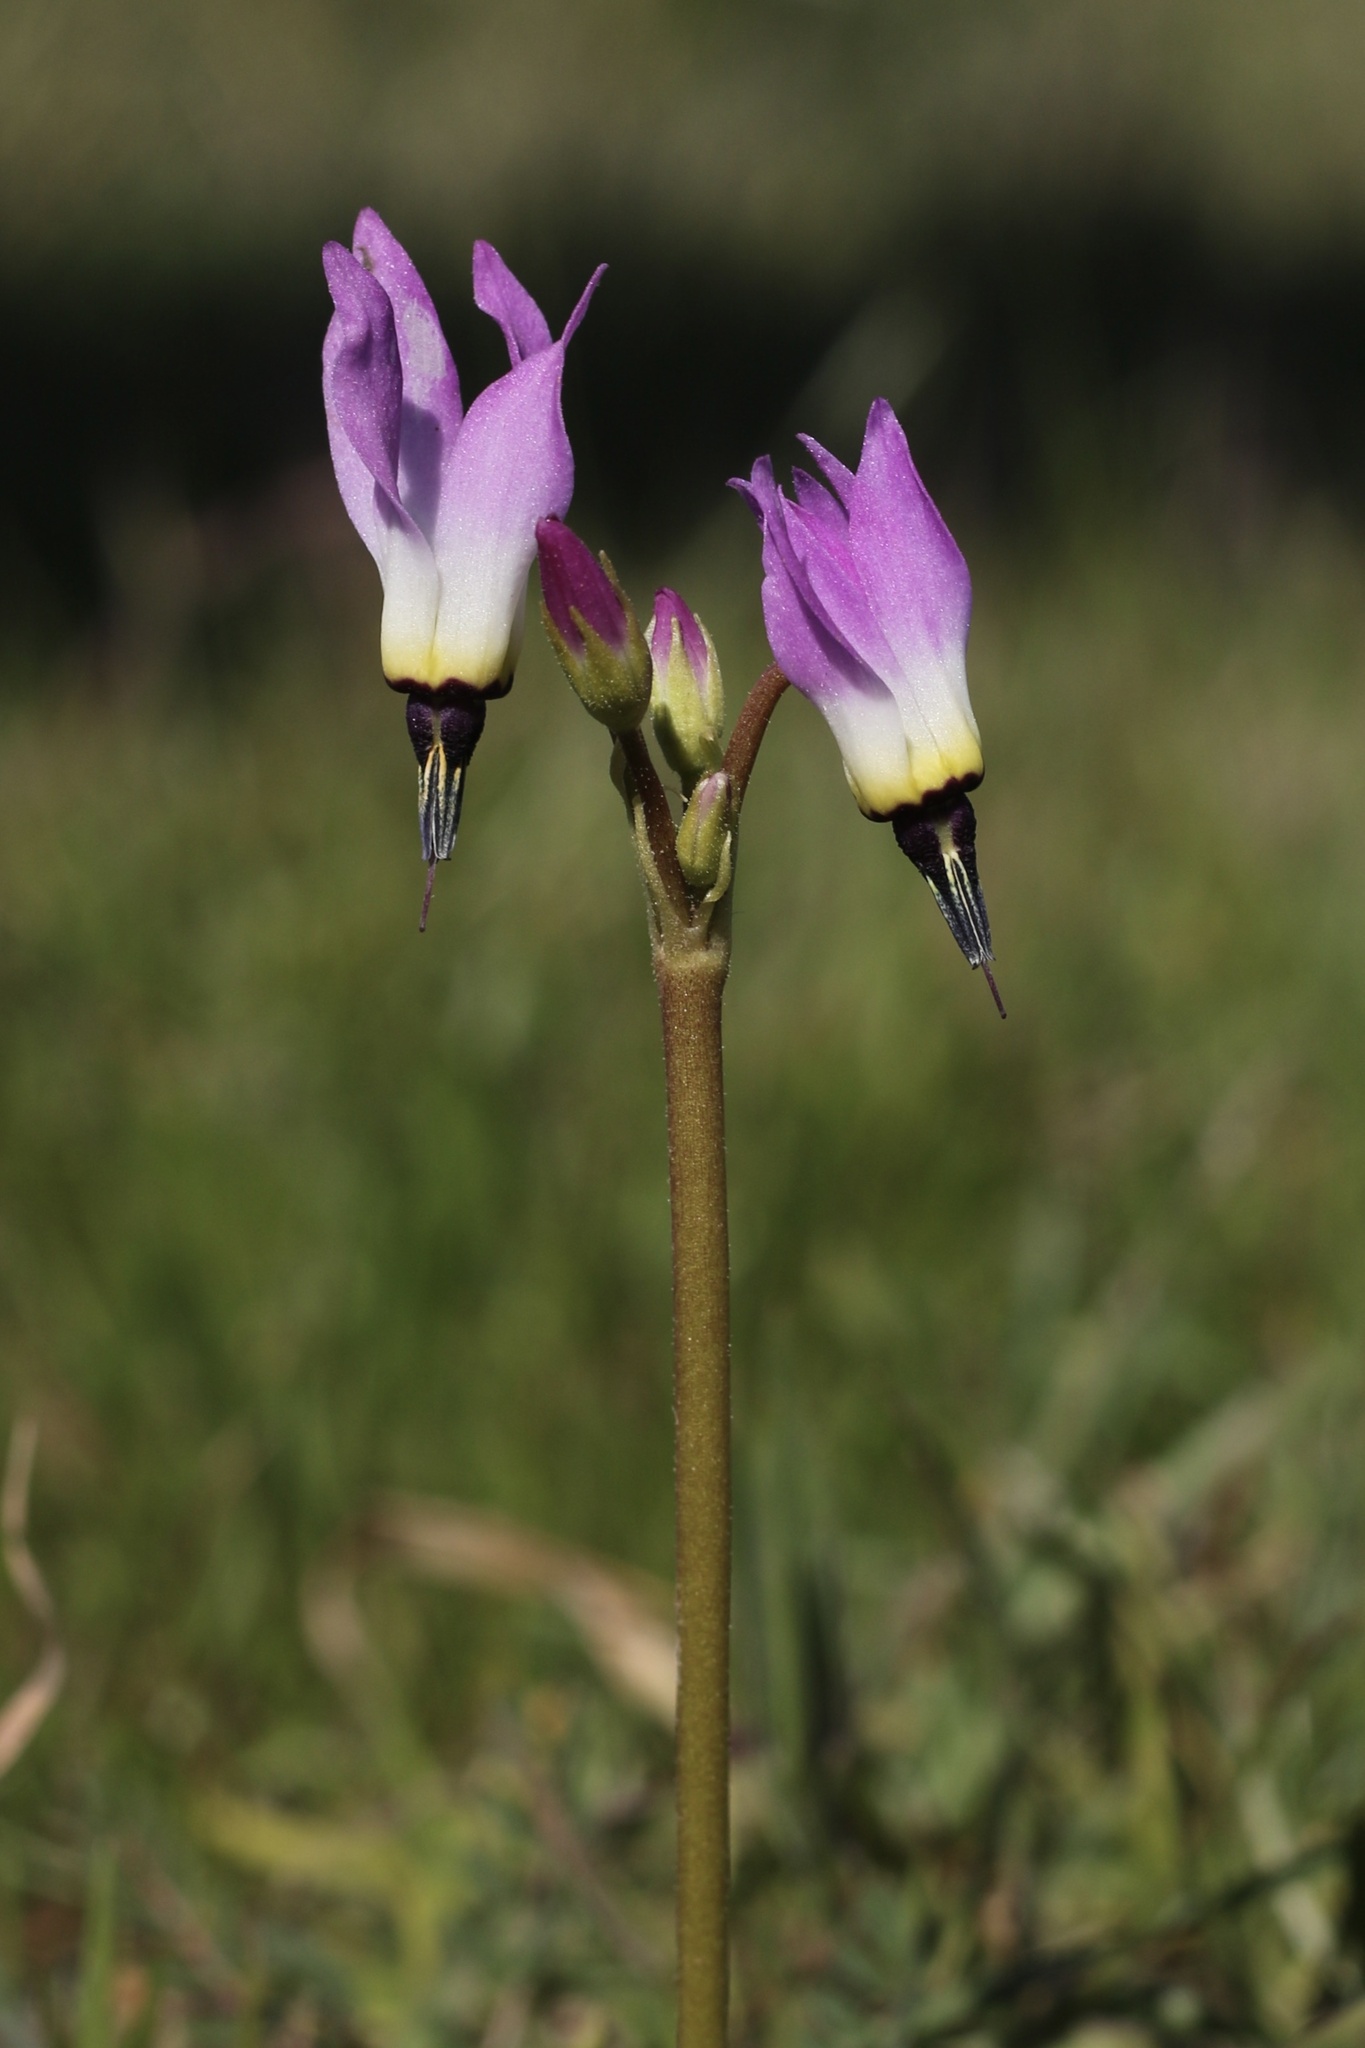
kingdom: Plantae
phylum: Tracheophyta
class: Magnoliopsida
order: Ericales
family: Primulaceae
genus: Dodecatheon
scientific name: Dodecatheon clevelandii
